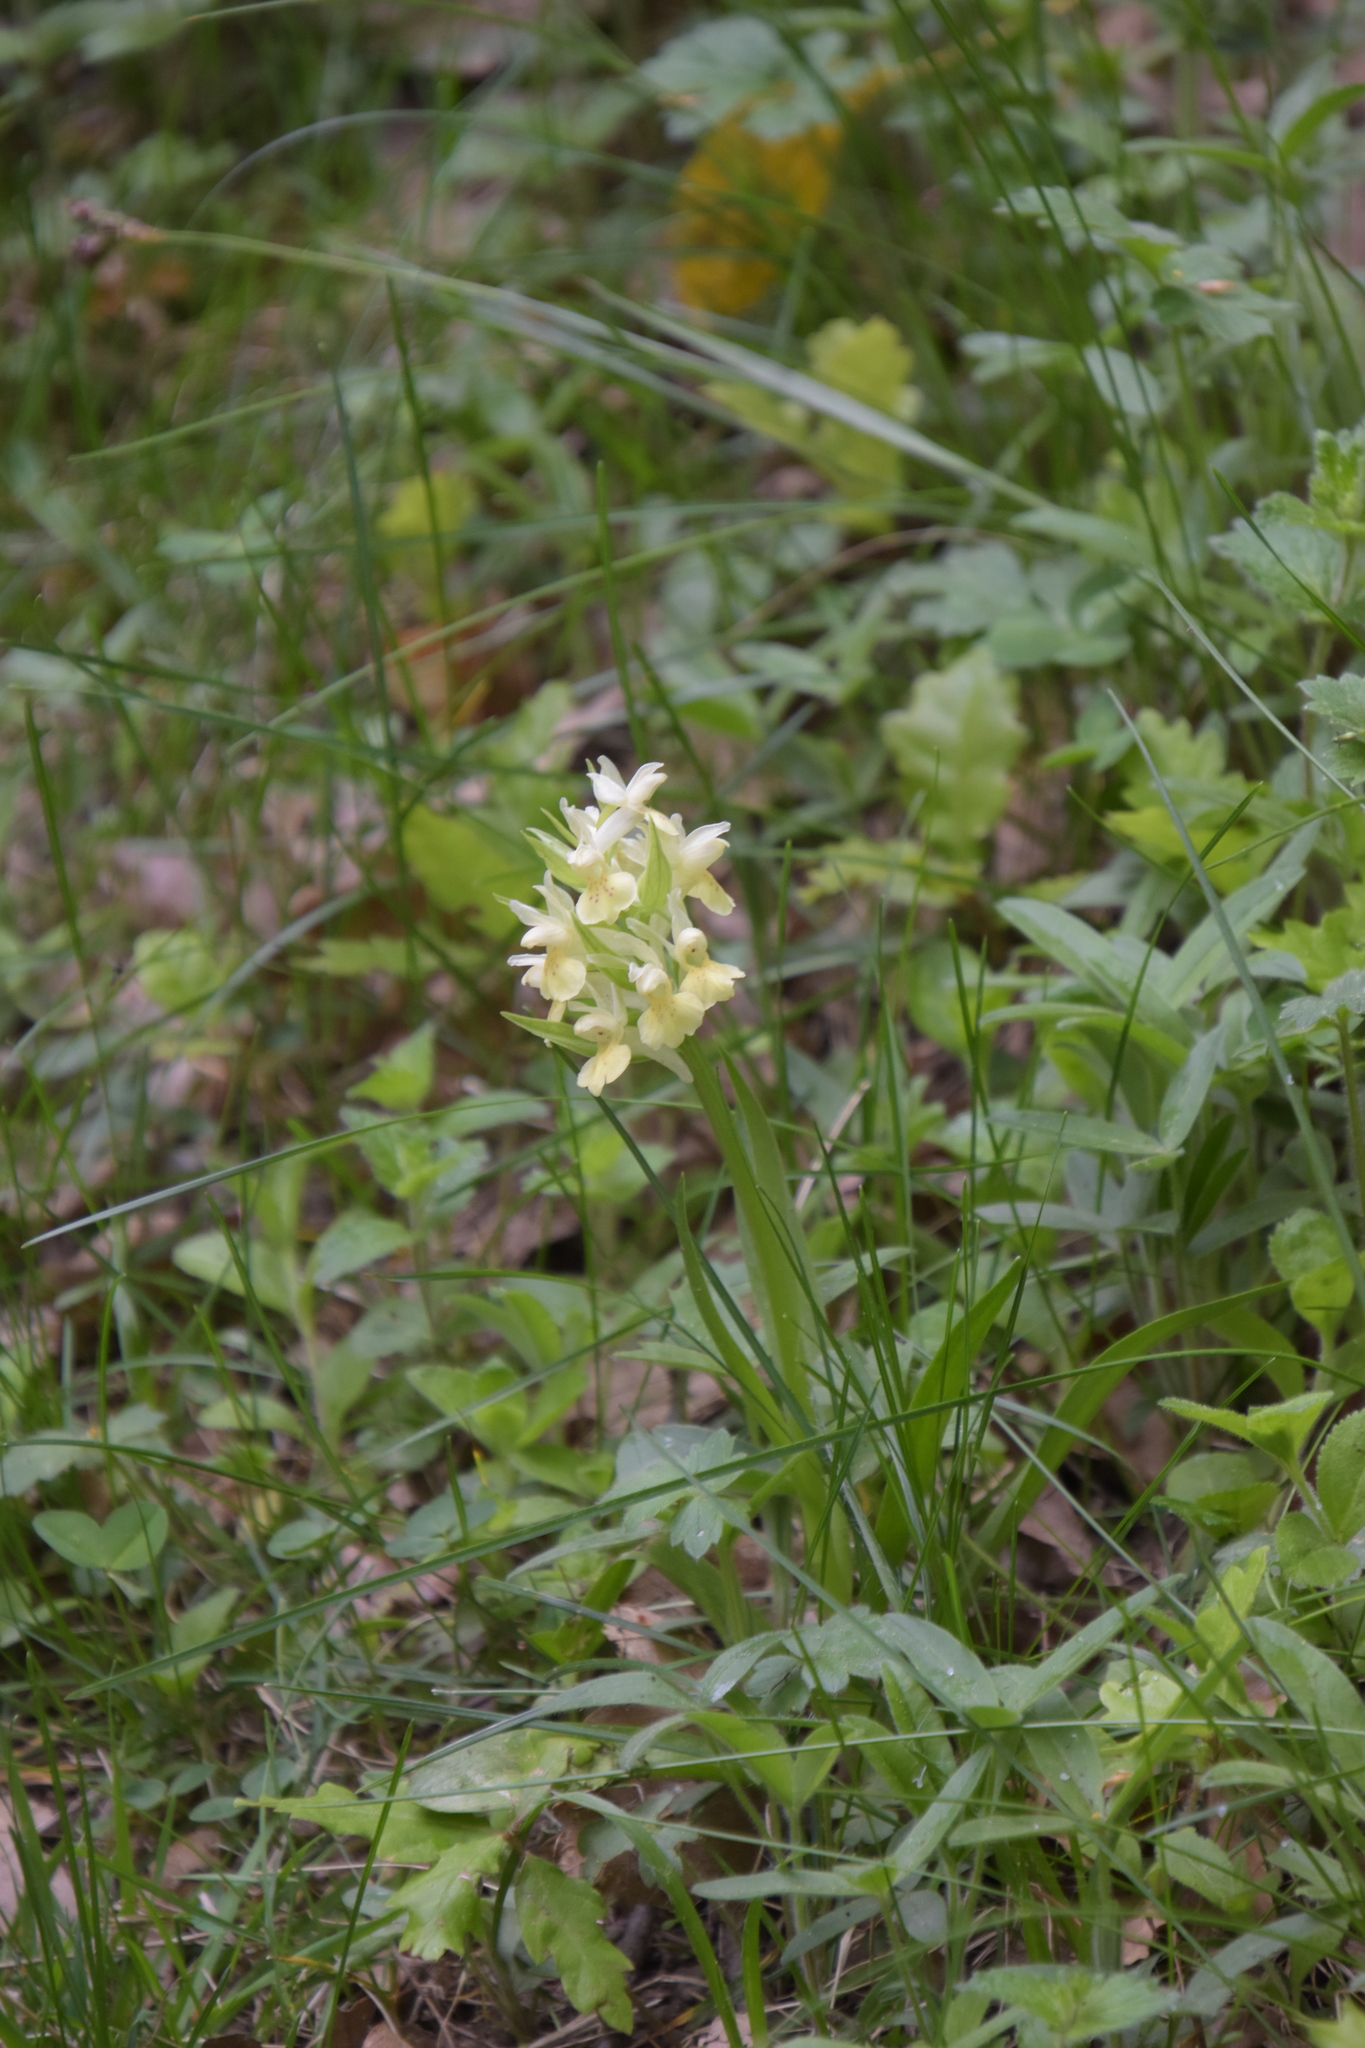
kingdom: Plantae
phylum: Tracheophyta
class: Liliopsida
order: Asparagales
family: Orchidaceae
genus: Dactylorhiza
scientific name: Dactylorhiza sambucina
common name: Elder-flowered orchid
